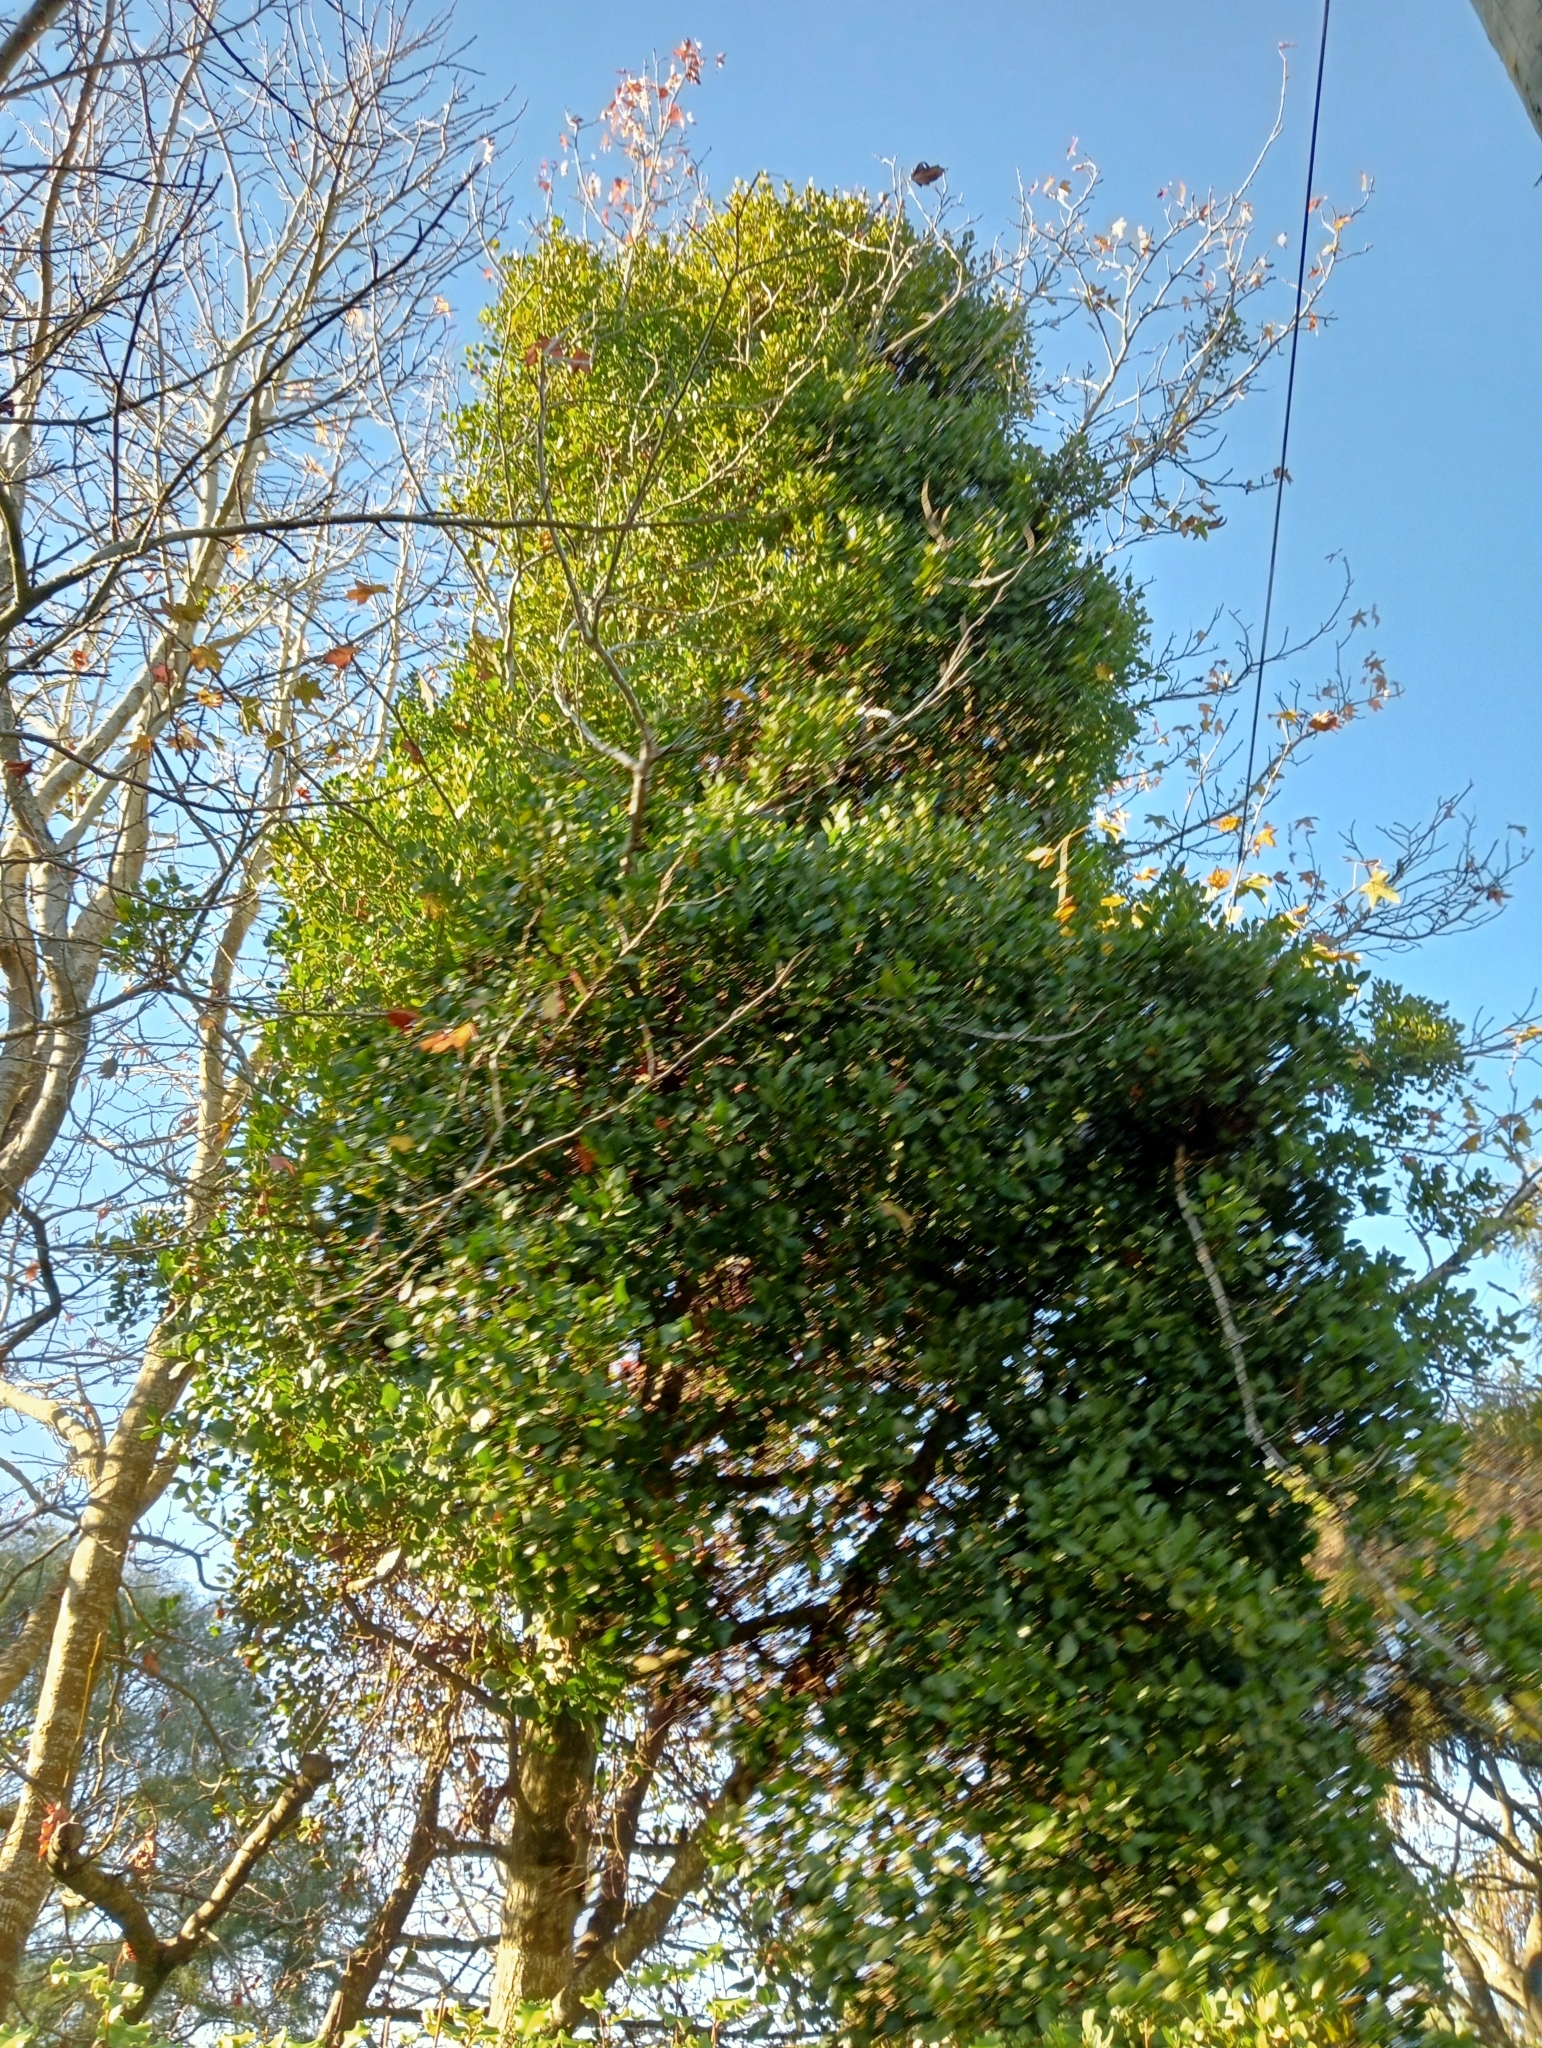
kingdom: Plantae
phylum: Tracheophyta
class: Magnoliopsida
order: Santalales
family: Loranthaceae
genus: Ileostylus
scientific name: Ileostylus micranthus
